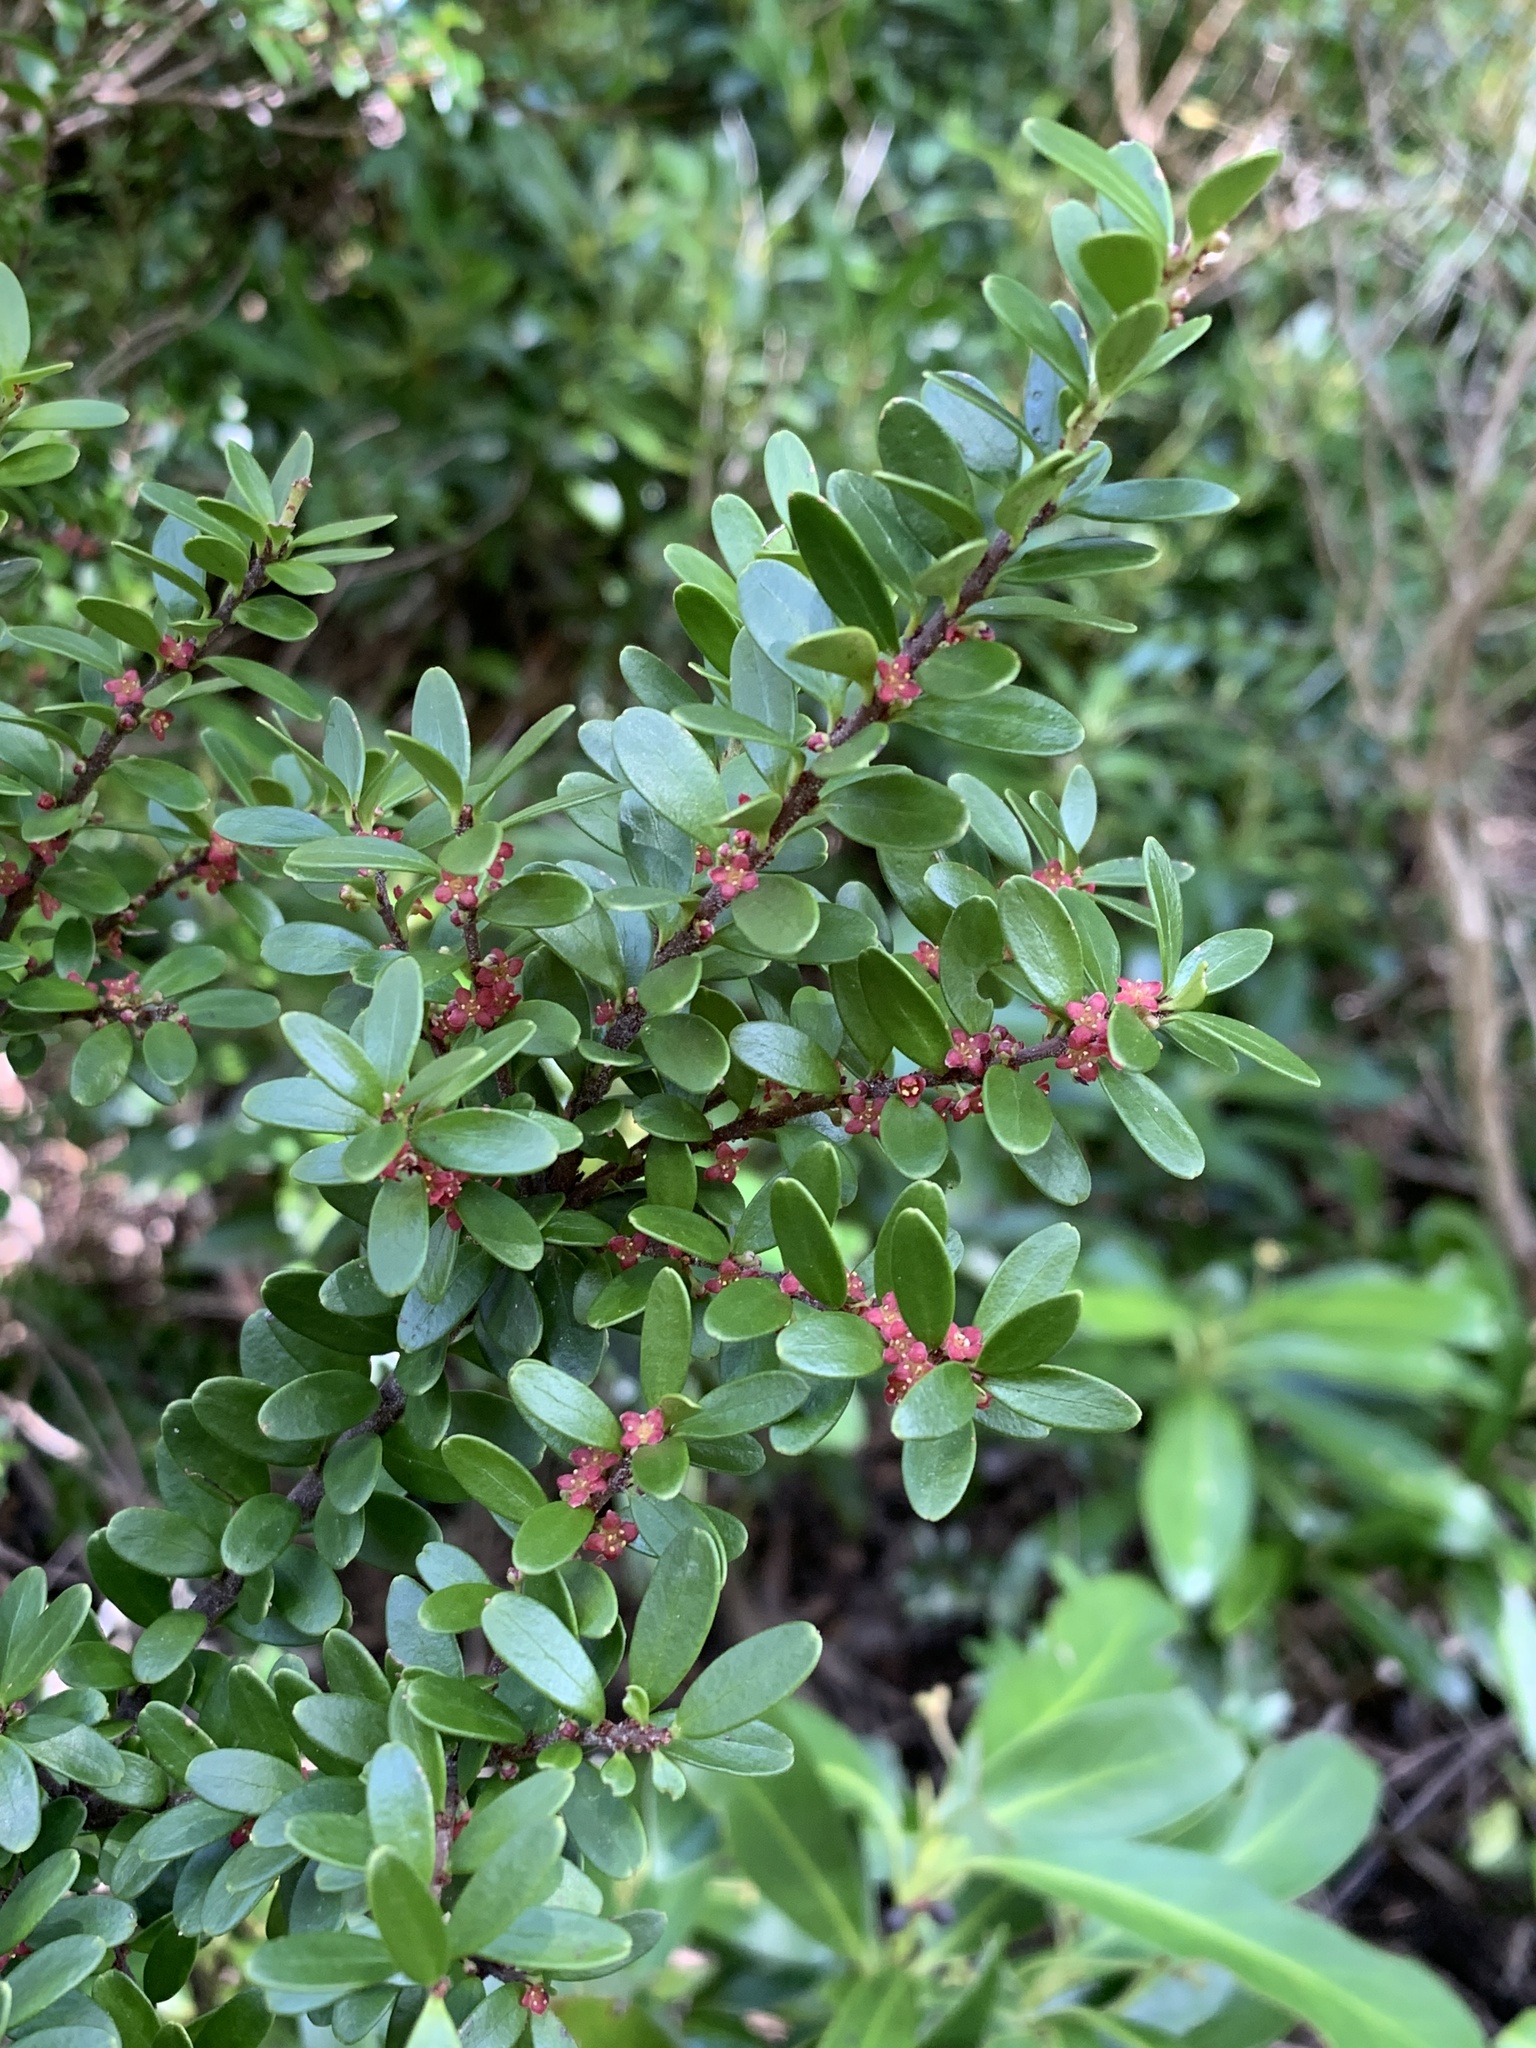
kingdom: Plantae
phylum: Tracheophyta
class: Magnoliopsida
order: Celastrales
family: Celastraceae
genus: Maytenus
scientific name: Maytenus disticha
